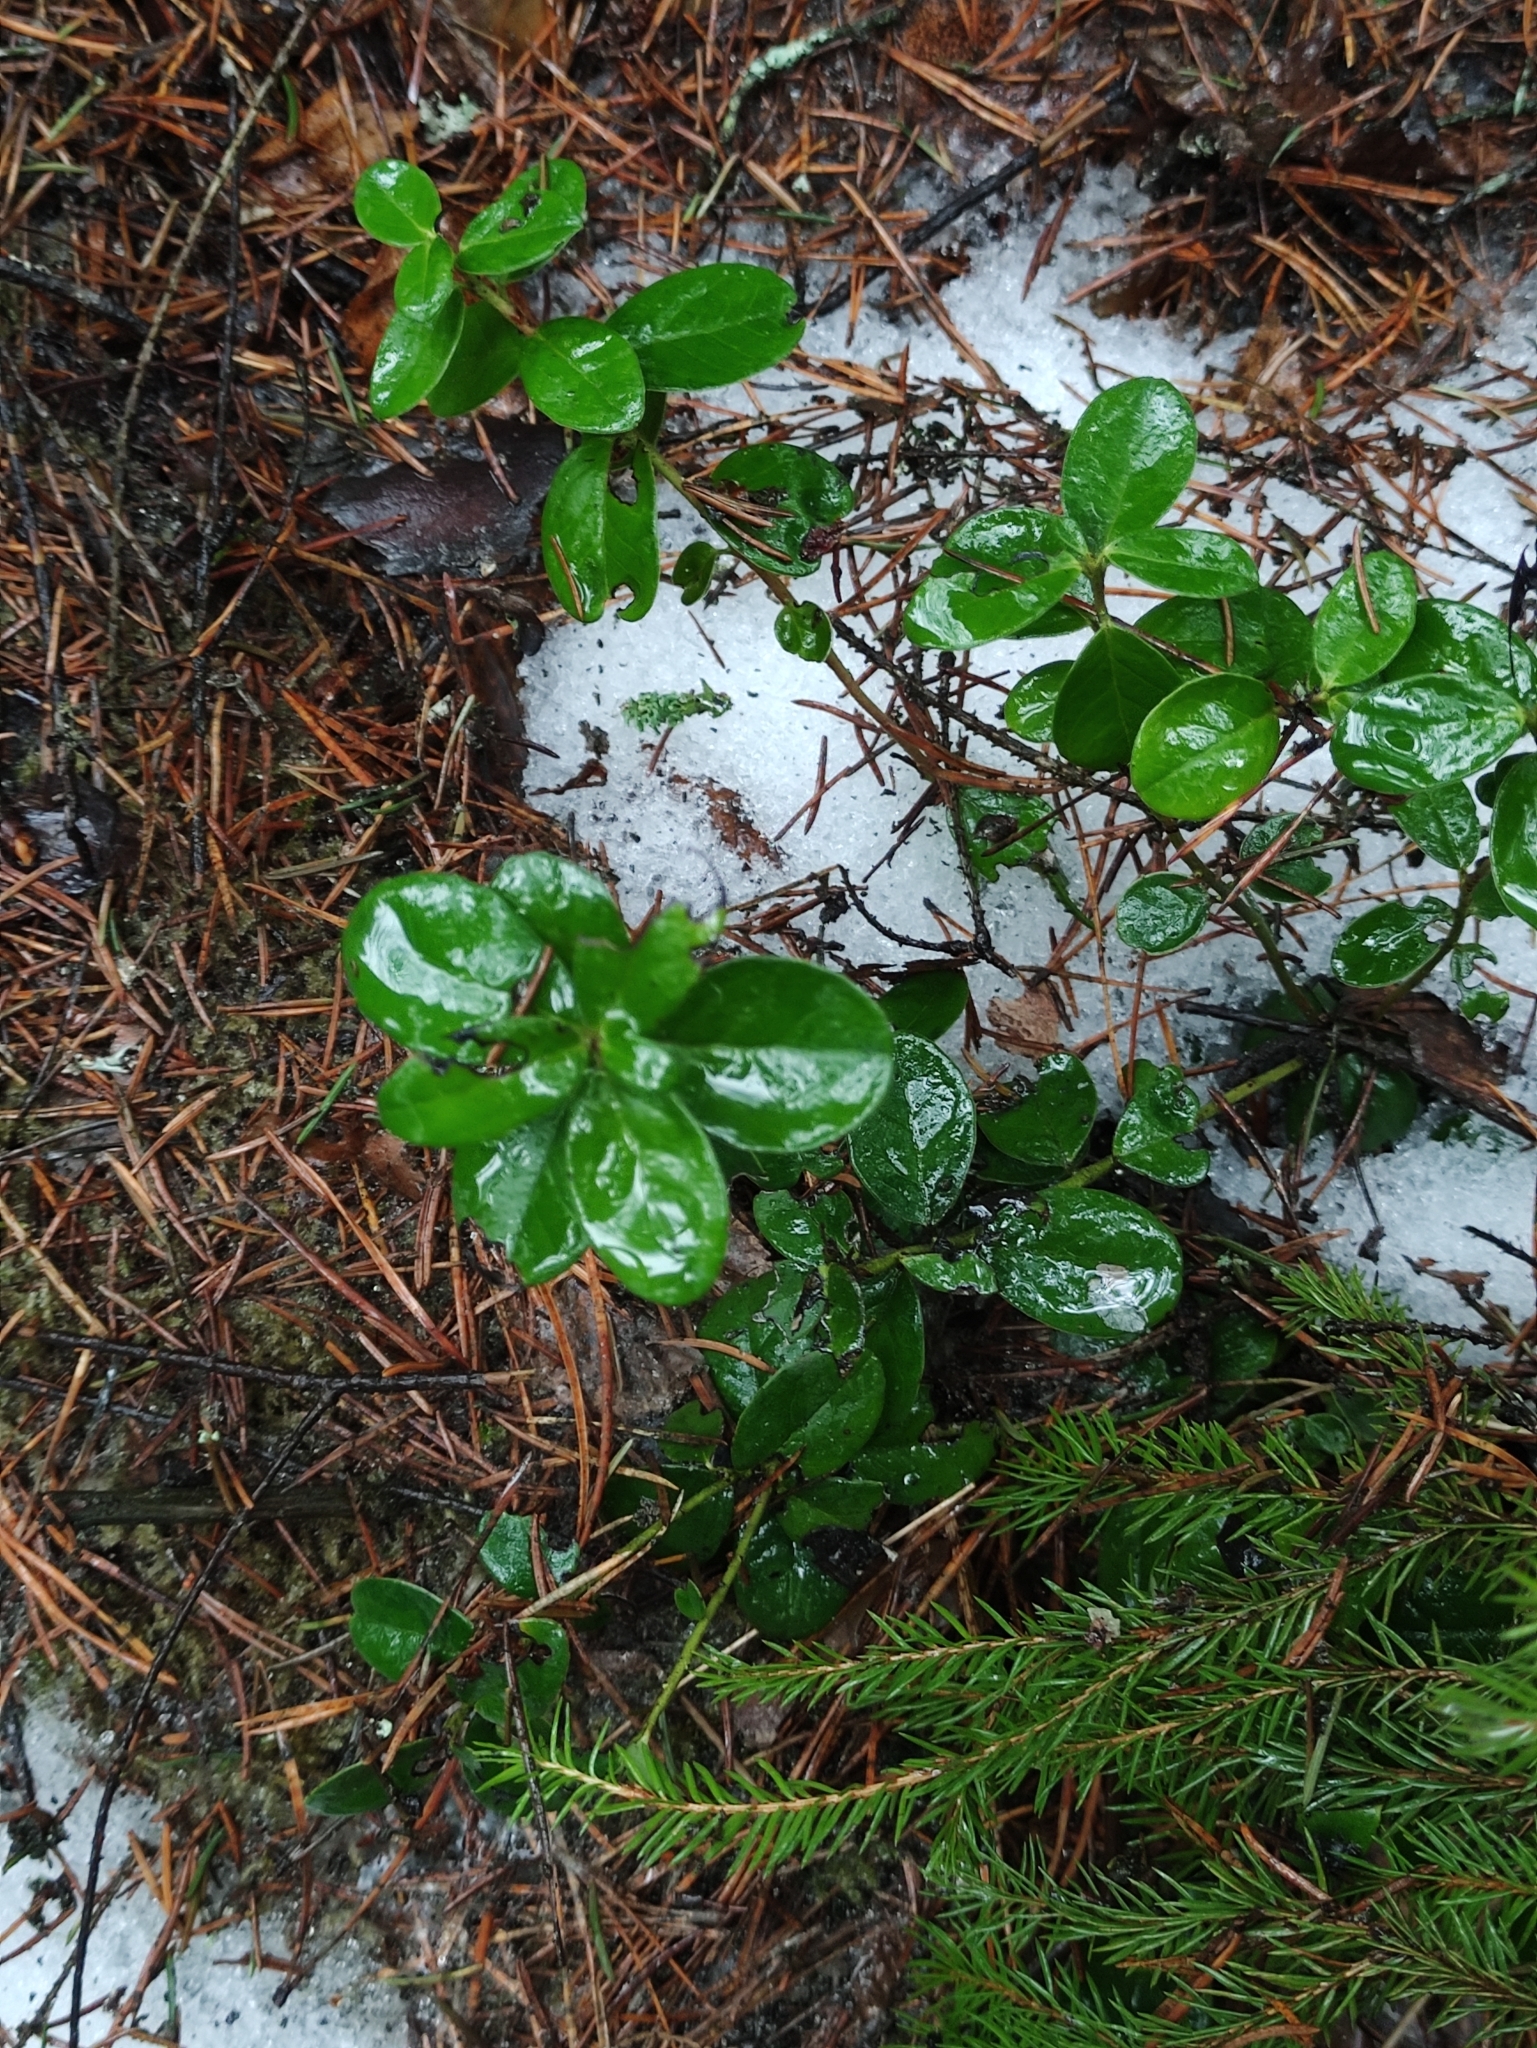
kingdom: Plantae
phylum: Tracheophyta
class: Magnoliopsida
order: Ericales
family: Ericaceae
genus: Vaccinium
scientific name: Vaccinium vitis-idaea
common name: Cowberry
